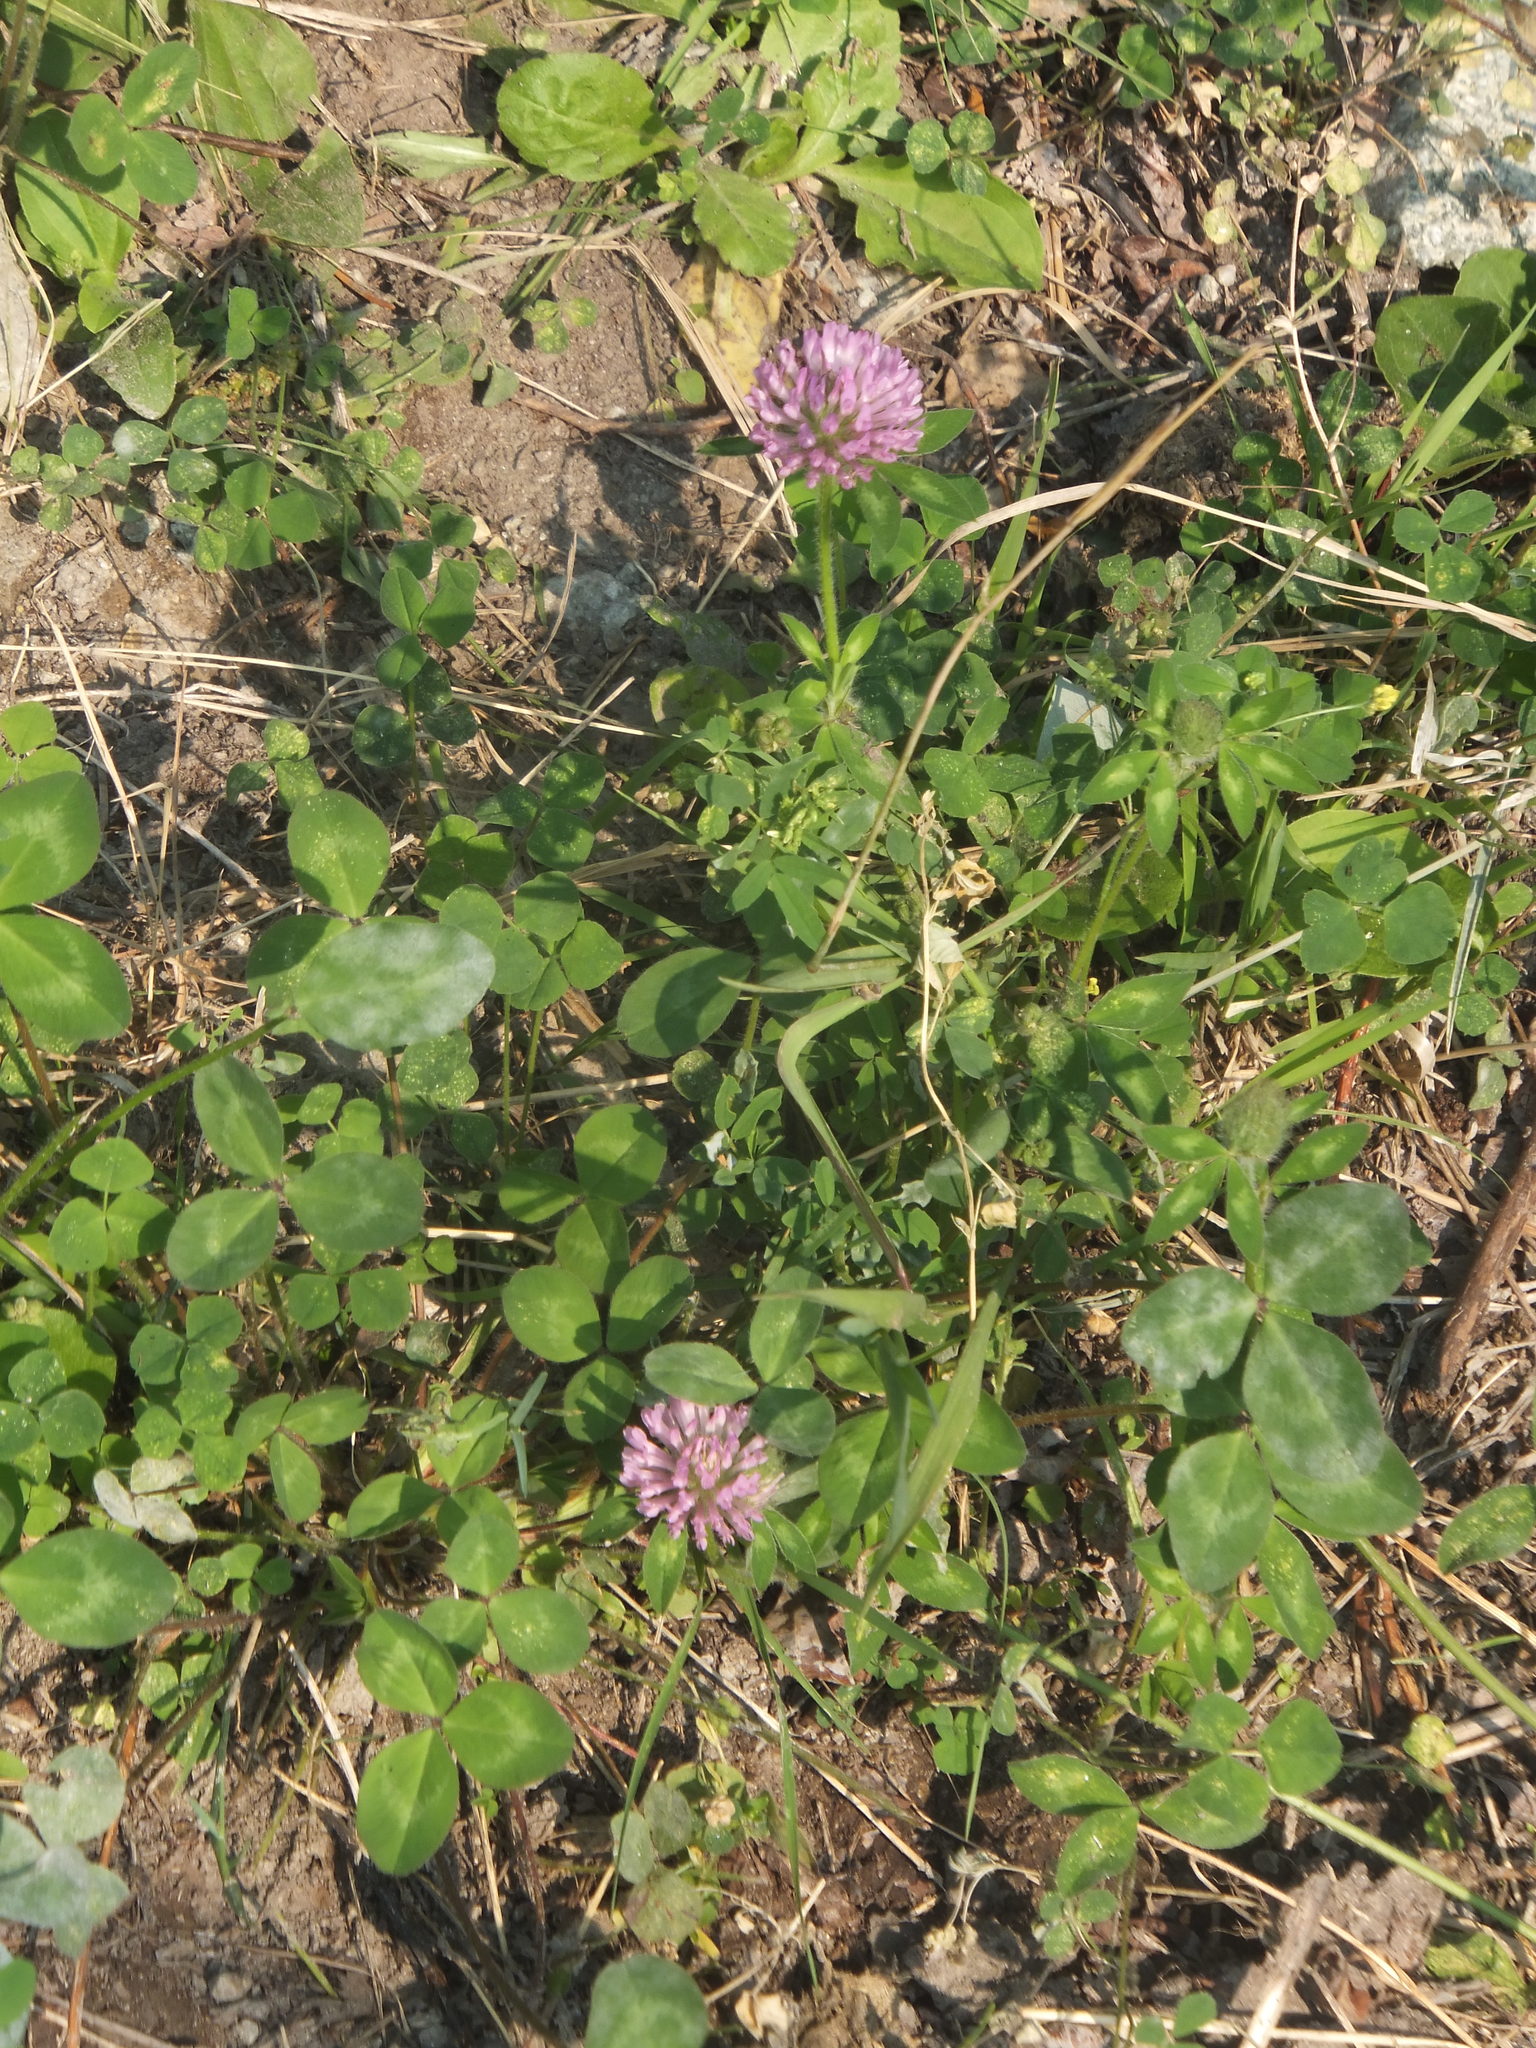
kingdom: Plantae
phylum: Tracheophyta
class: Magnoliopsida
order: Fabales
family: Fabaceae
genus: Trifolium
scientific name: Trifolium pratense
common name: Red clover
